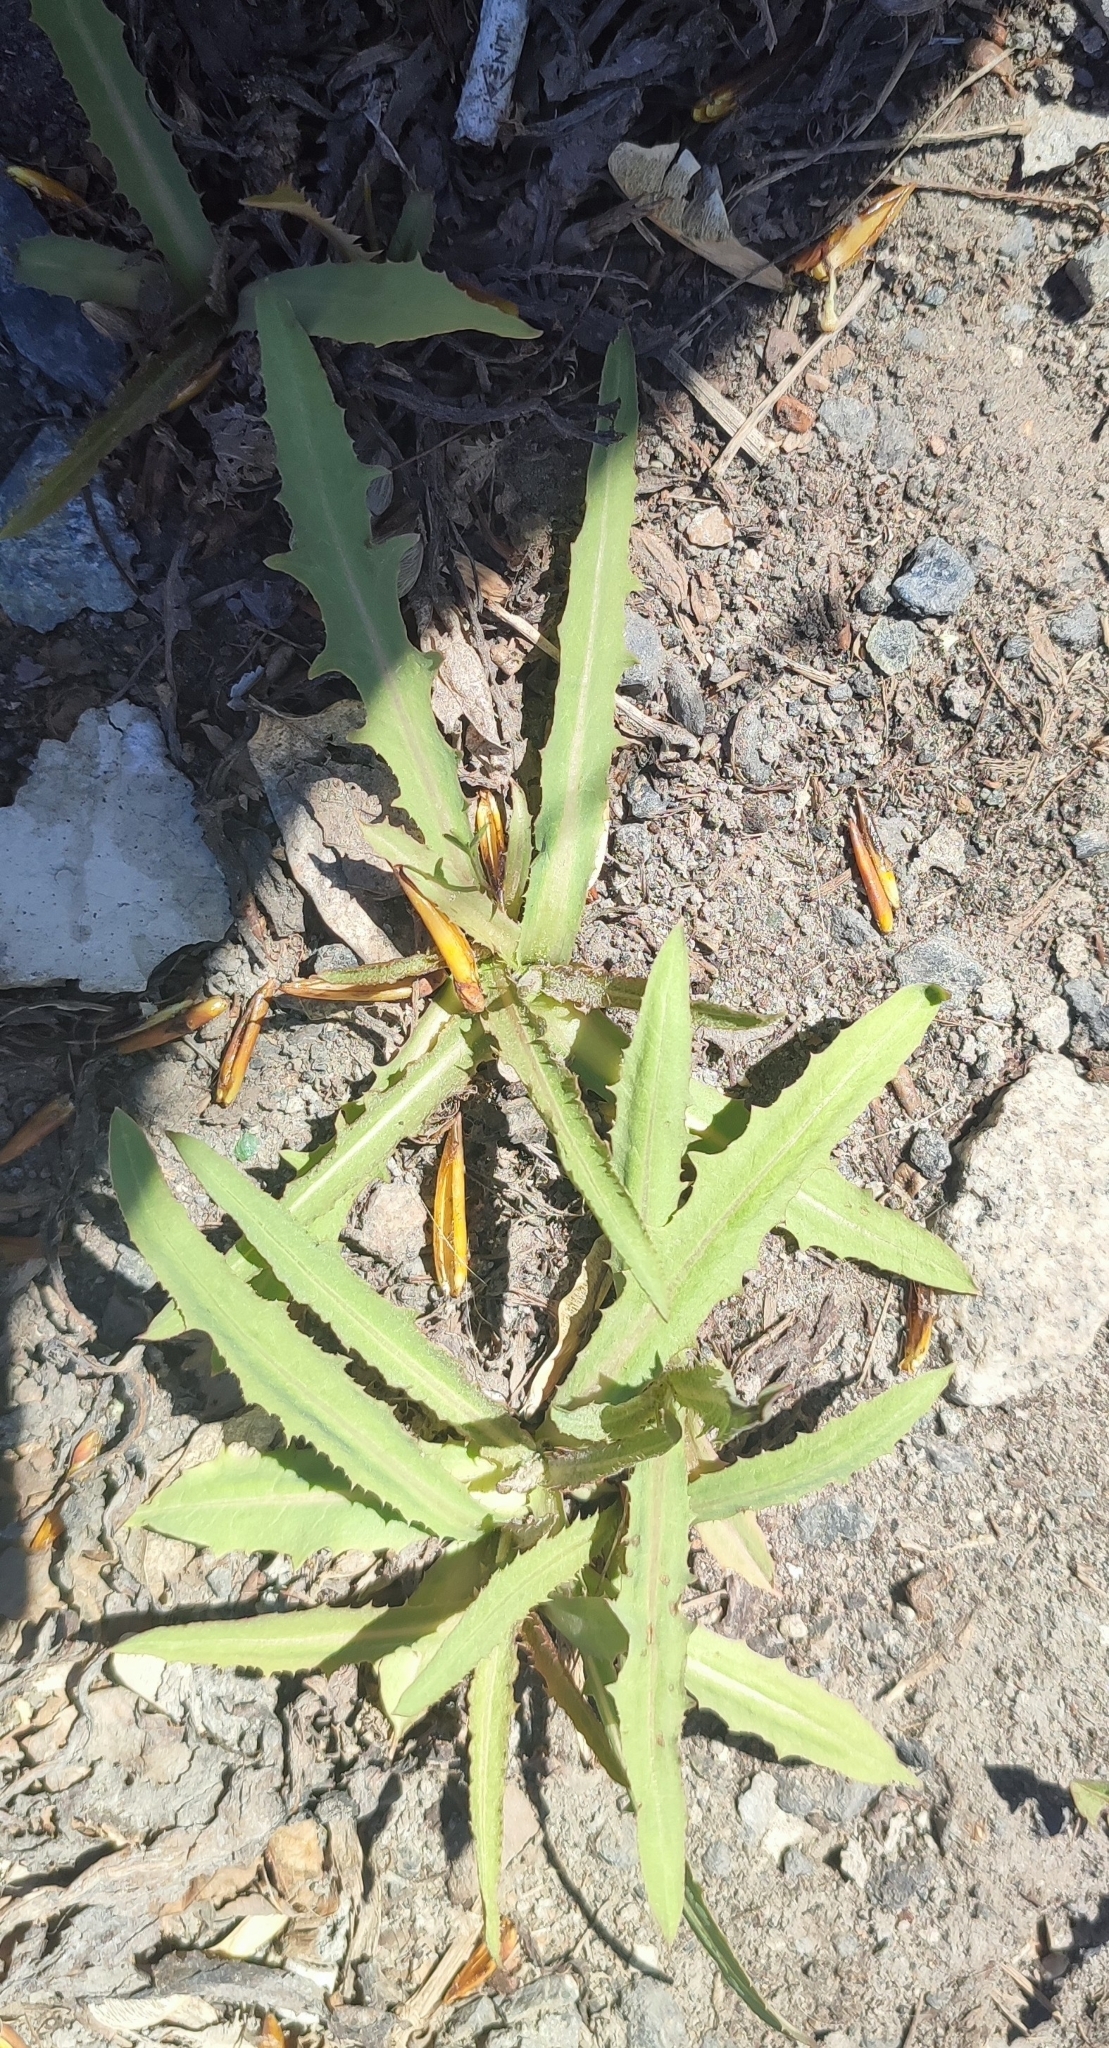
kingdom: Plantae
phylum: Tracheophyta
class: Magnoliopsida
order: Asterales
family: Asteraceae
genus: Lactuca
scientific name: Lactuca tatarica
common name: Blue lettuce
